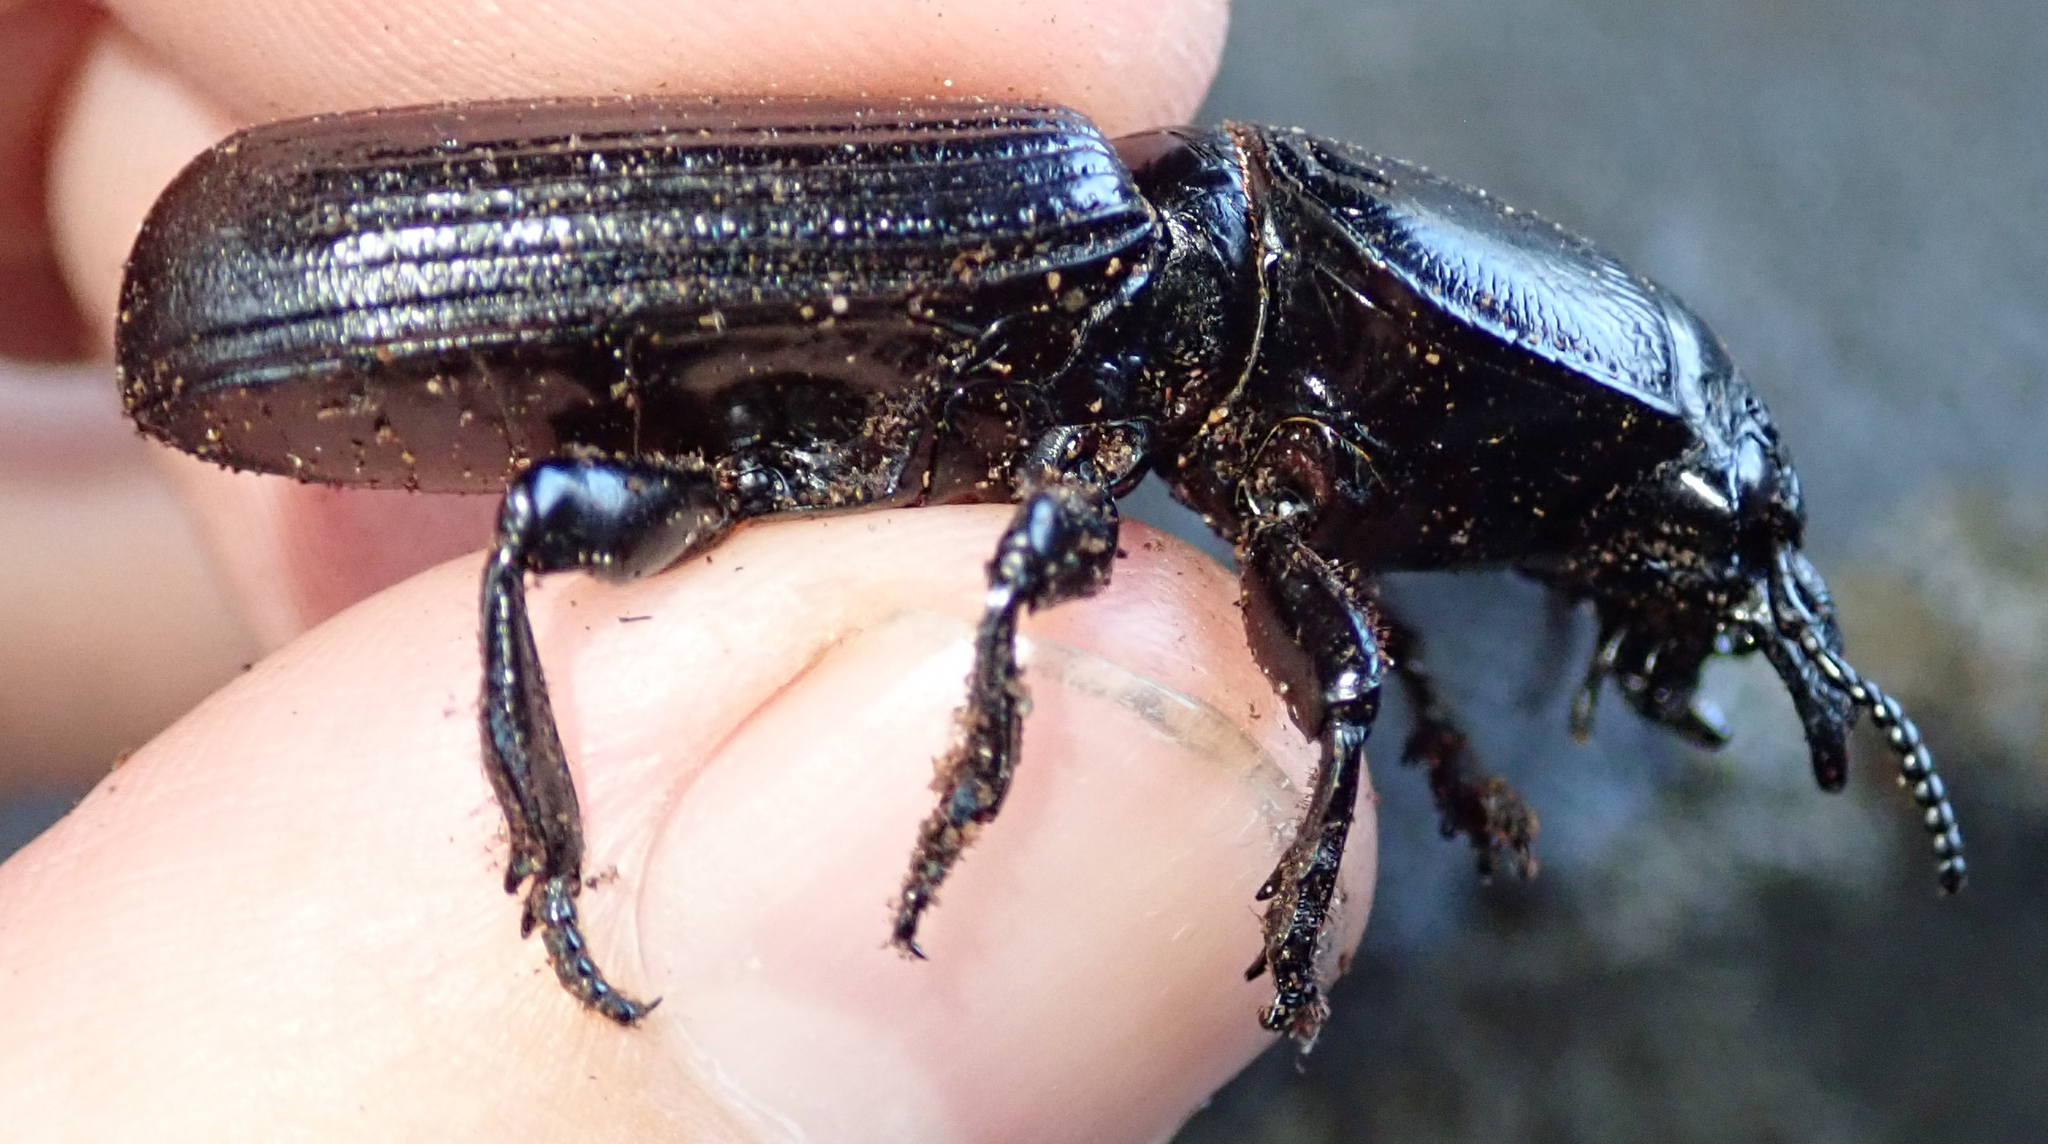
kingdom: Animalia
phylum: Arthropoda
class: Insecta
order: Coleoptera
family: Carabidae
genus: Passalidius
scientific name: Passalidius fortipes
